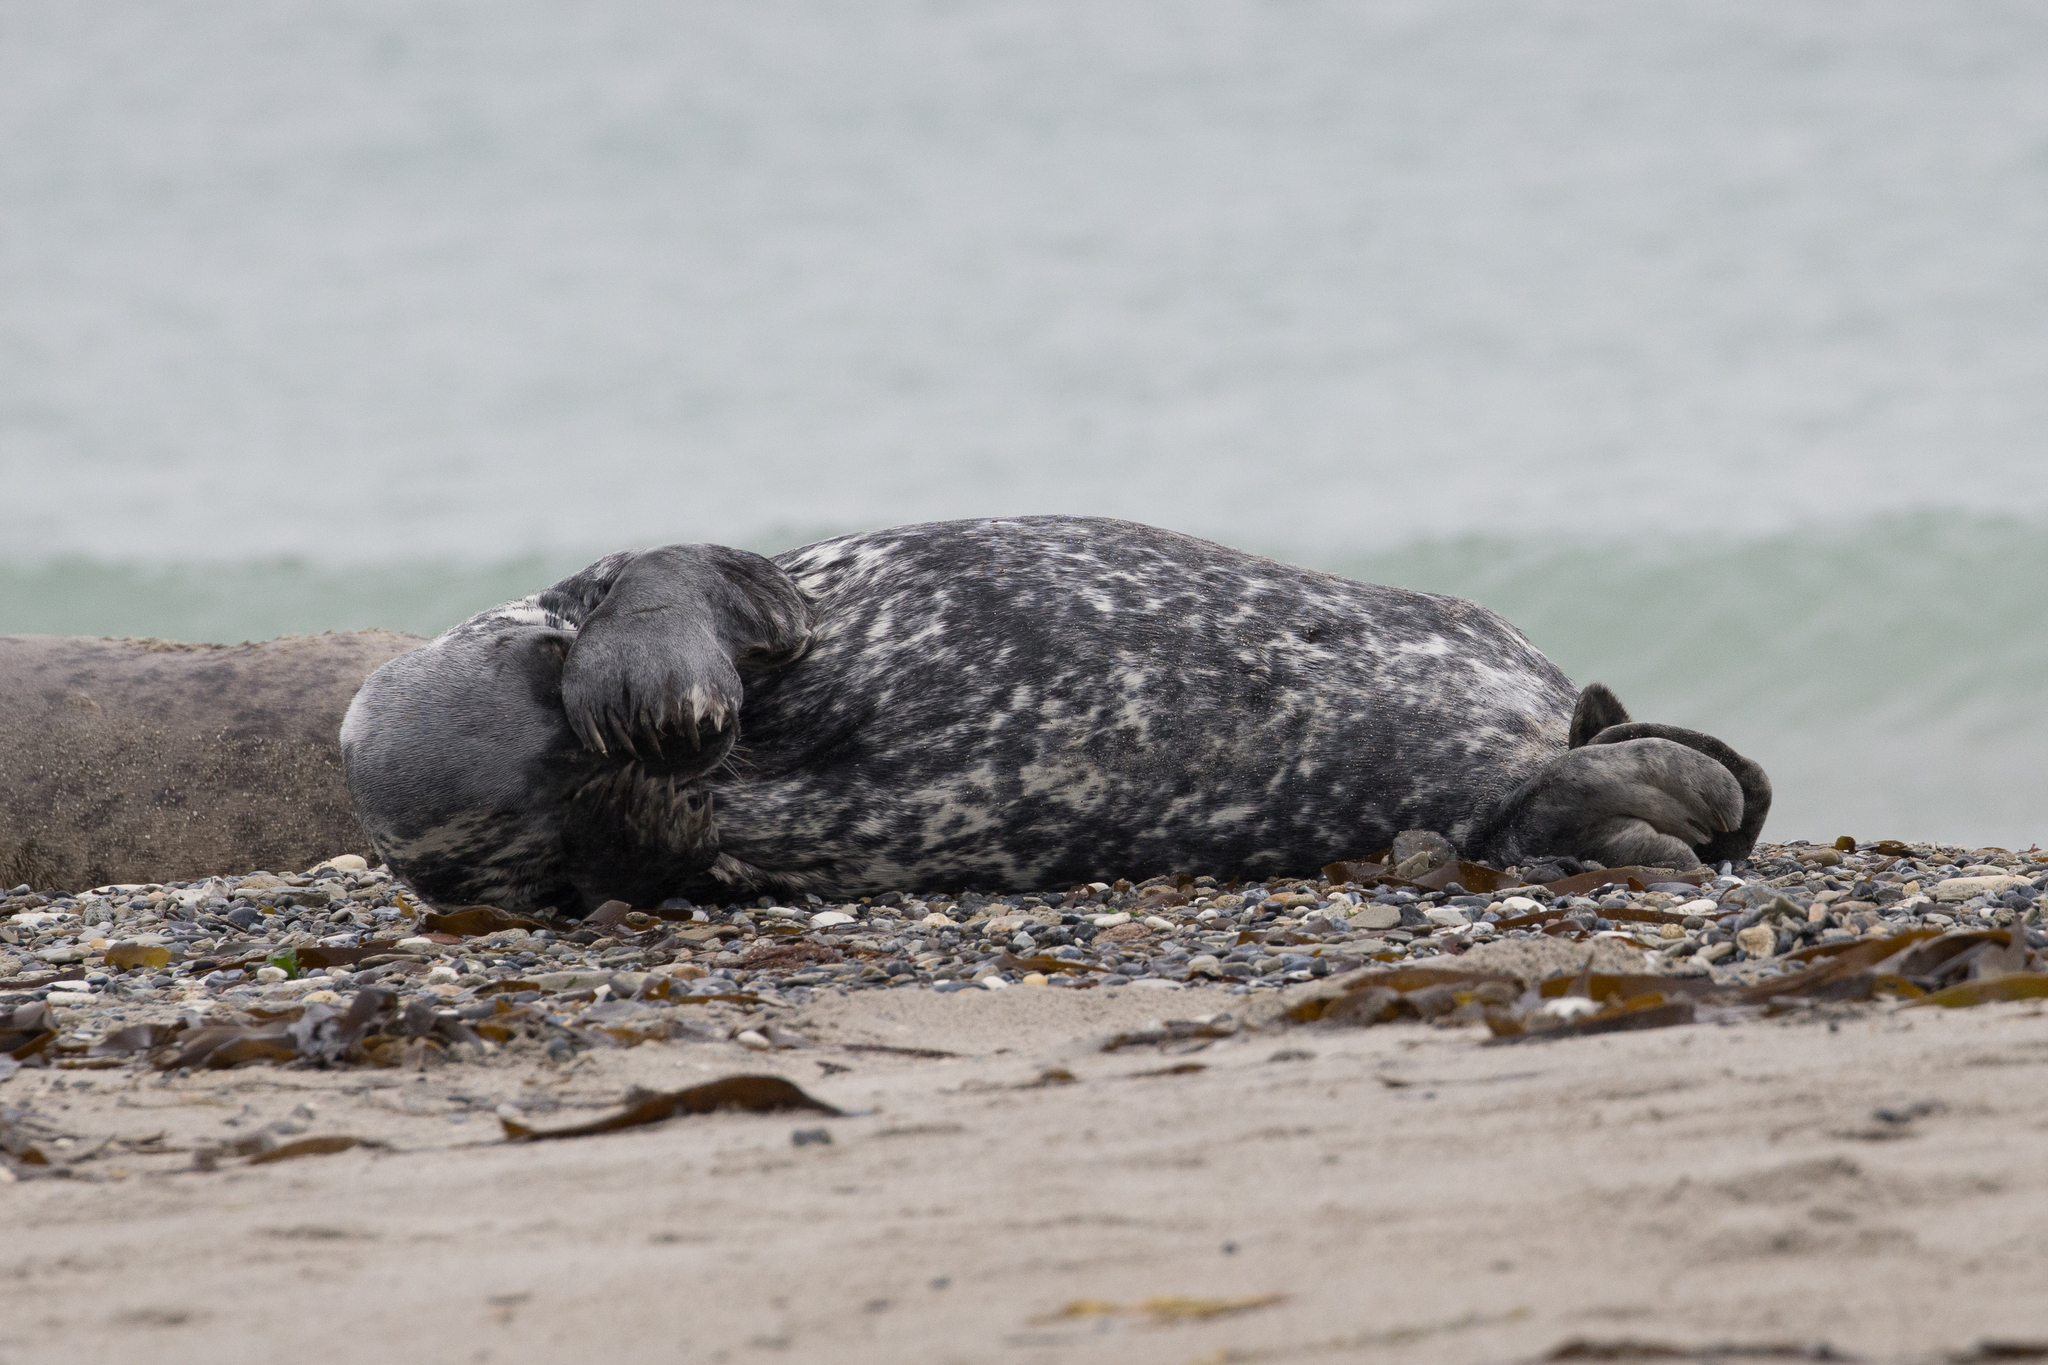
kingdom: Animalia
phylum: Chordata
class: Mammalia
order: Carnivora
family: Phocidae
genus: Halichoerus
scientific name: Halichoerus grypus
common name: Grey seal
